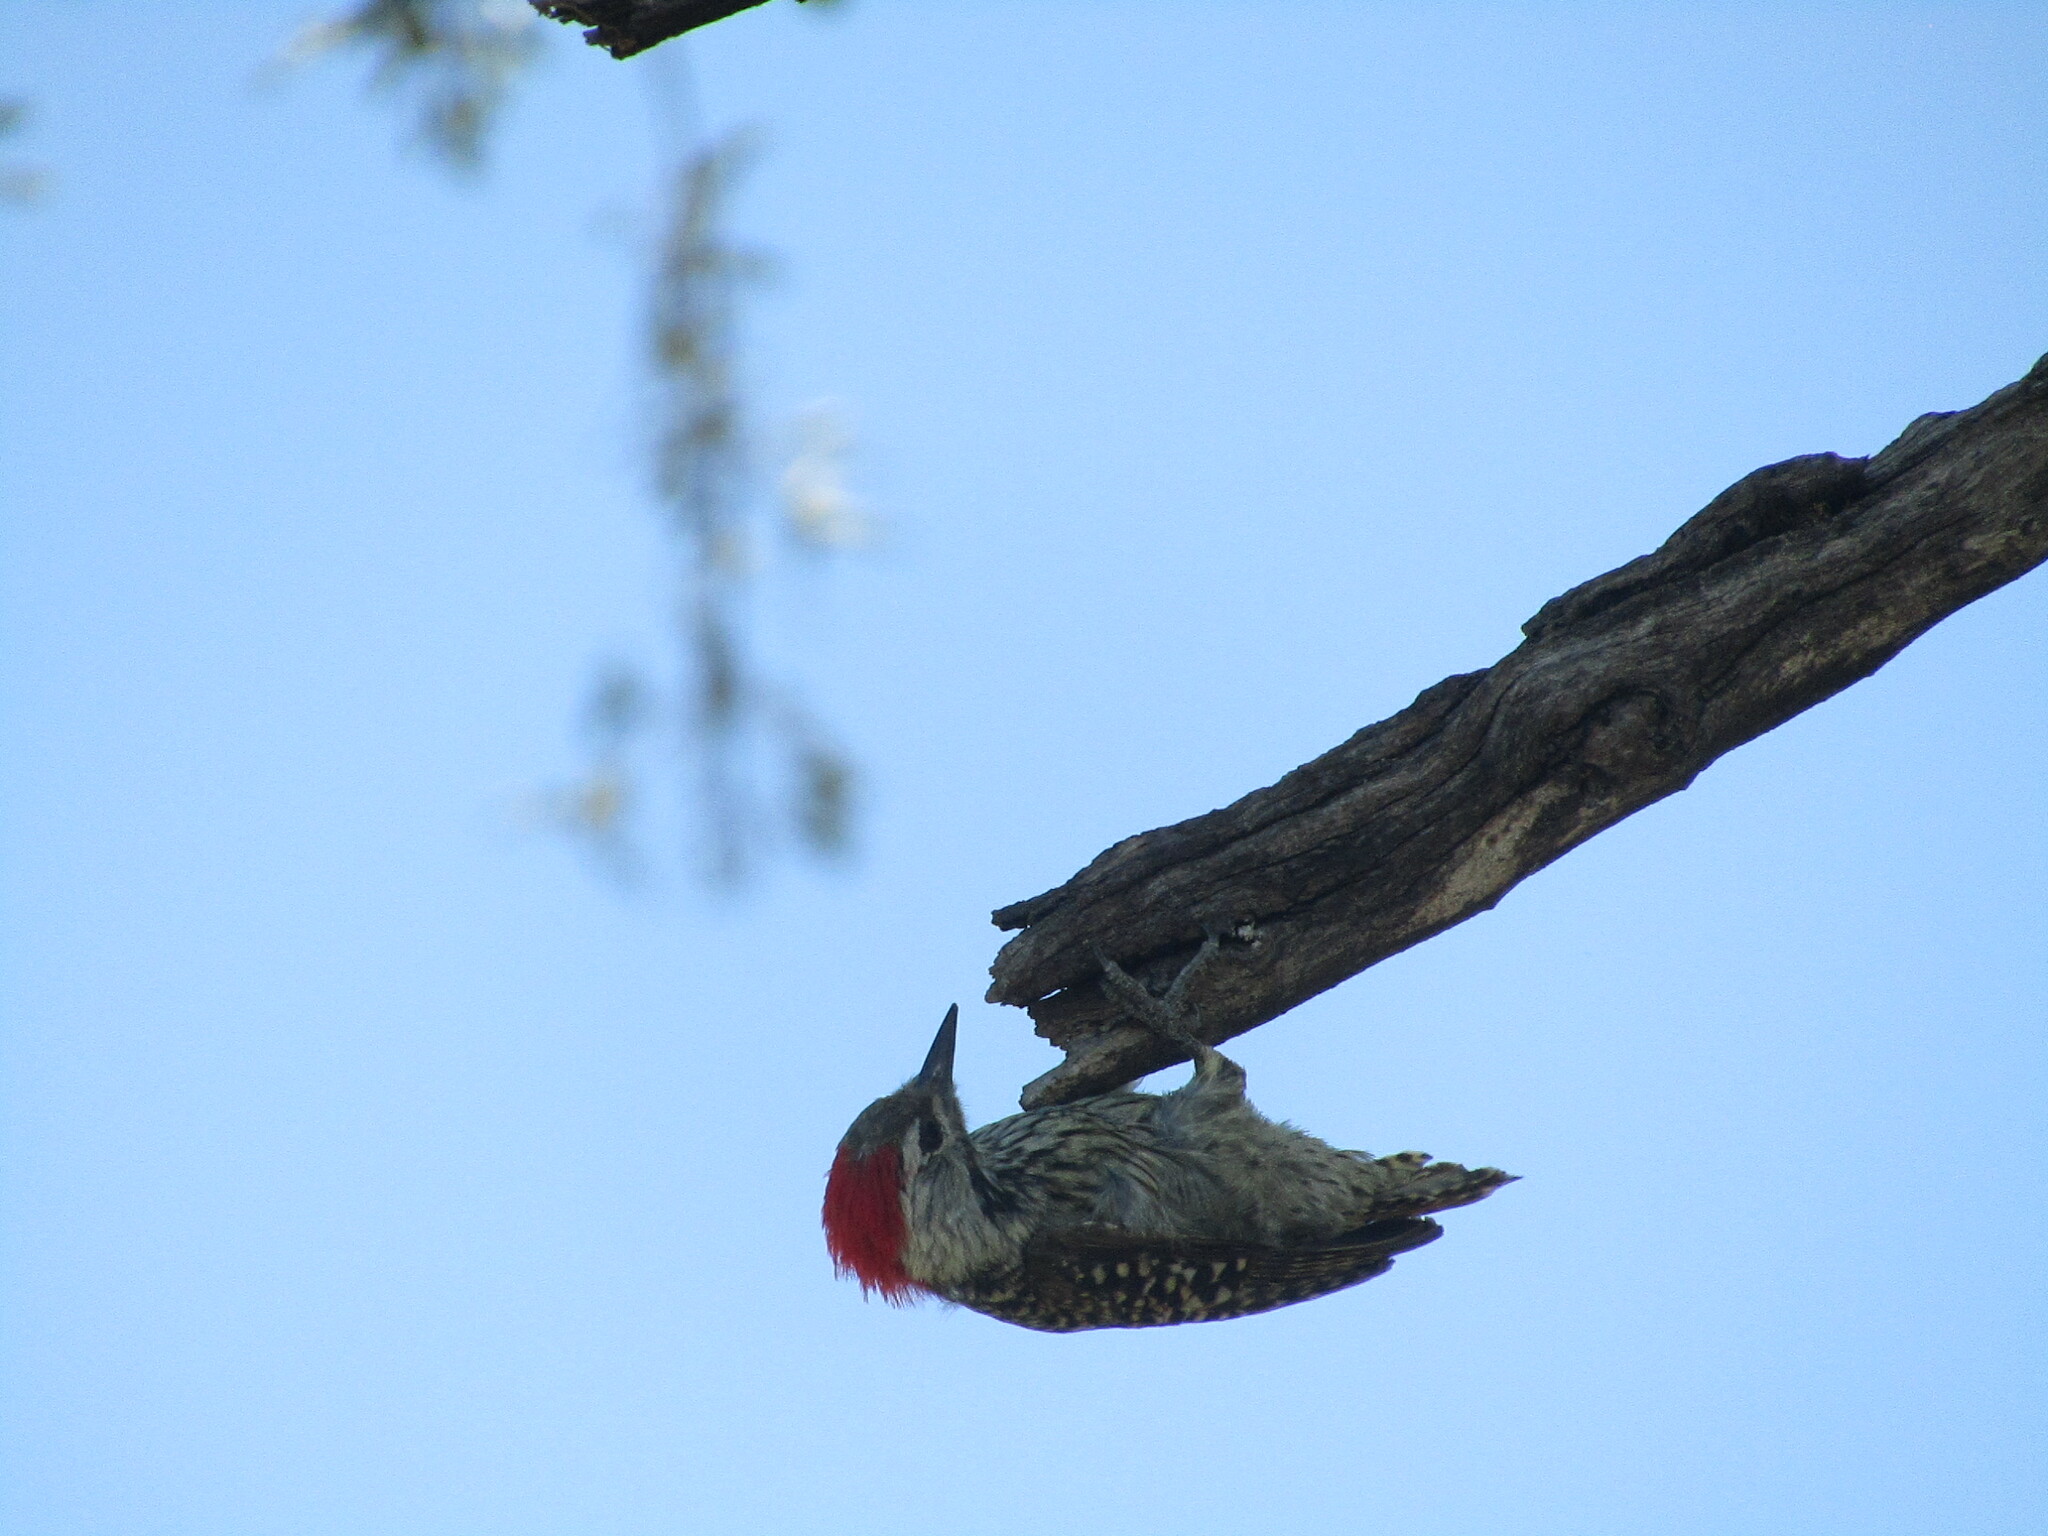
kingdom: Animalia
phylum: Chordata
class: Aves
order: Piciformes
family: Picidae
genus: Dendropicos
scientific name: Dendropicos fuscescens
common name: Cardinal woodpecker
